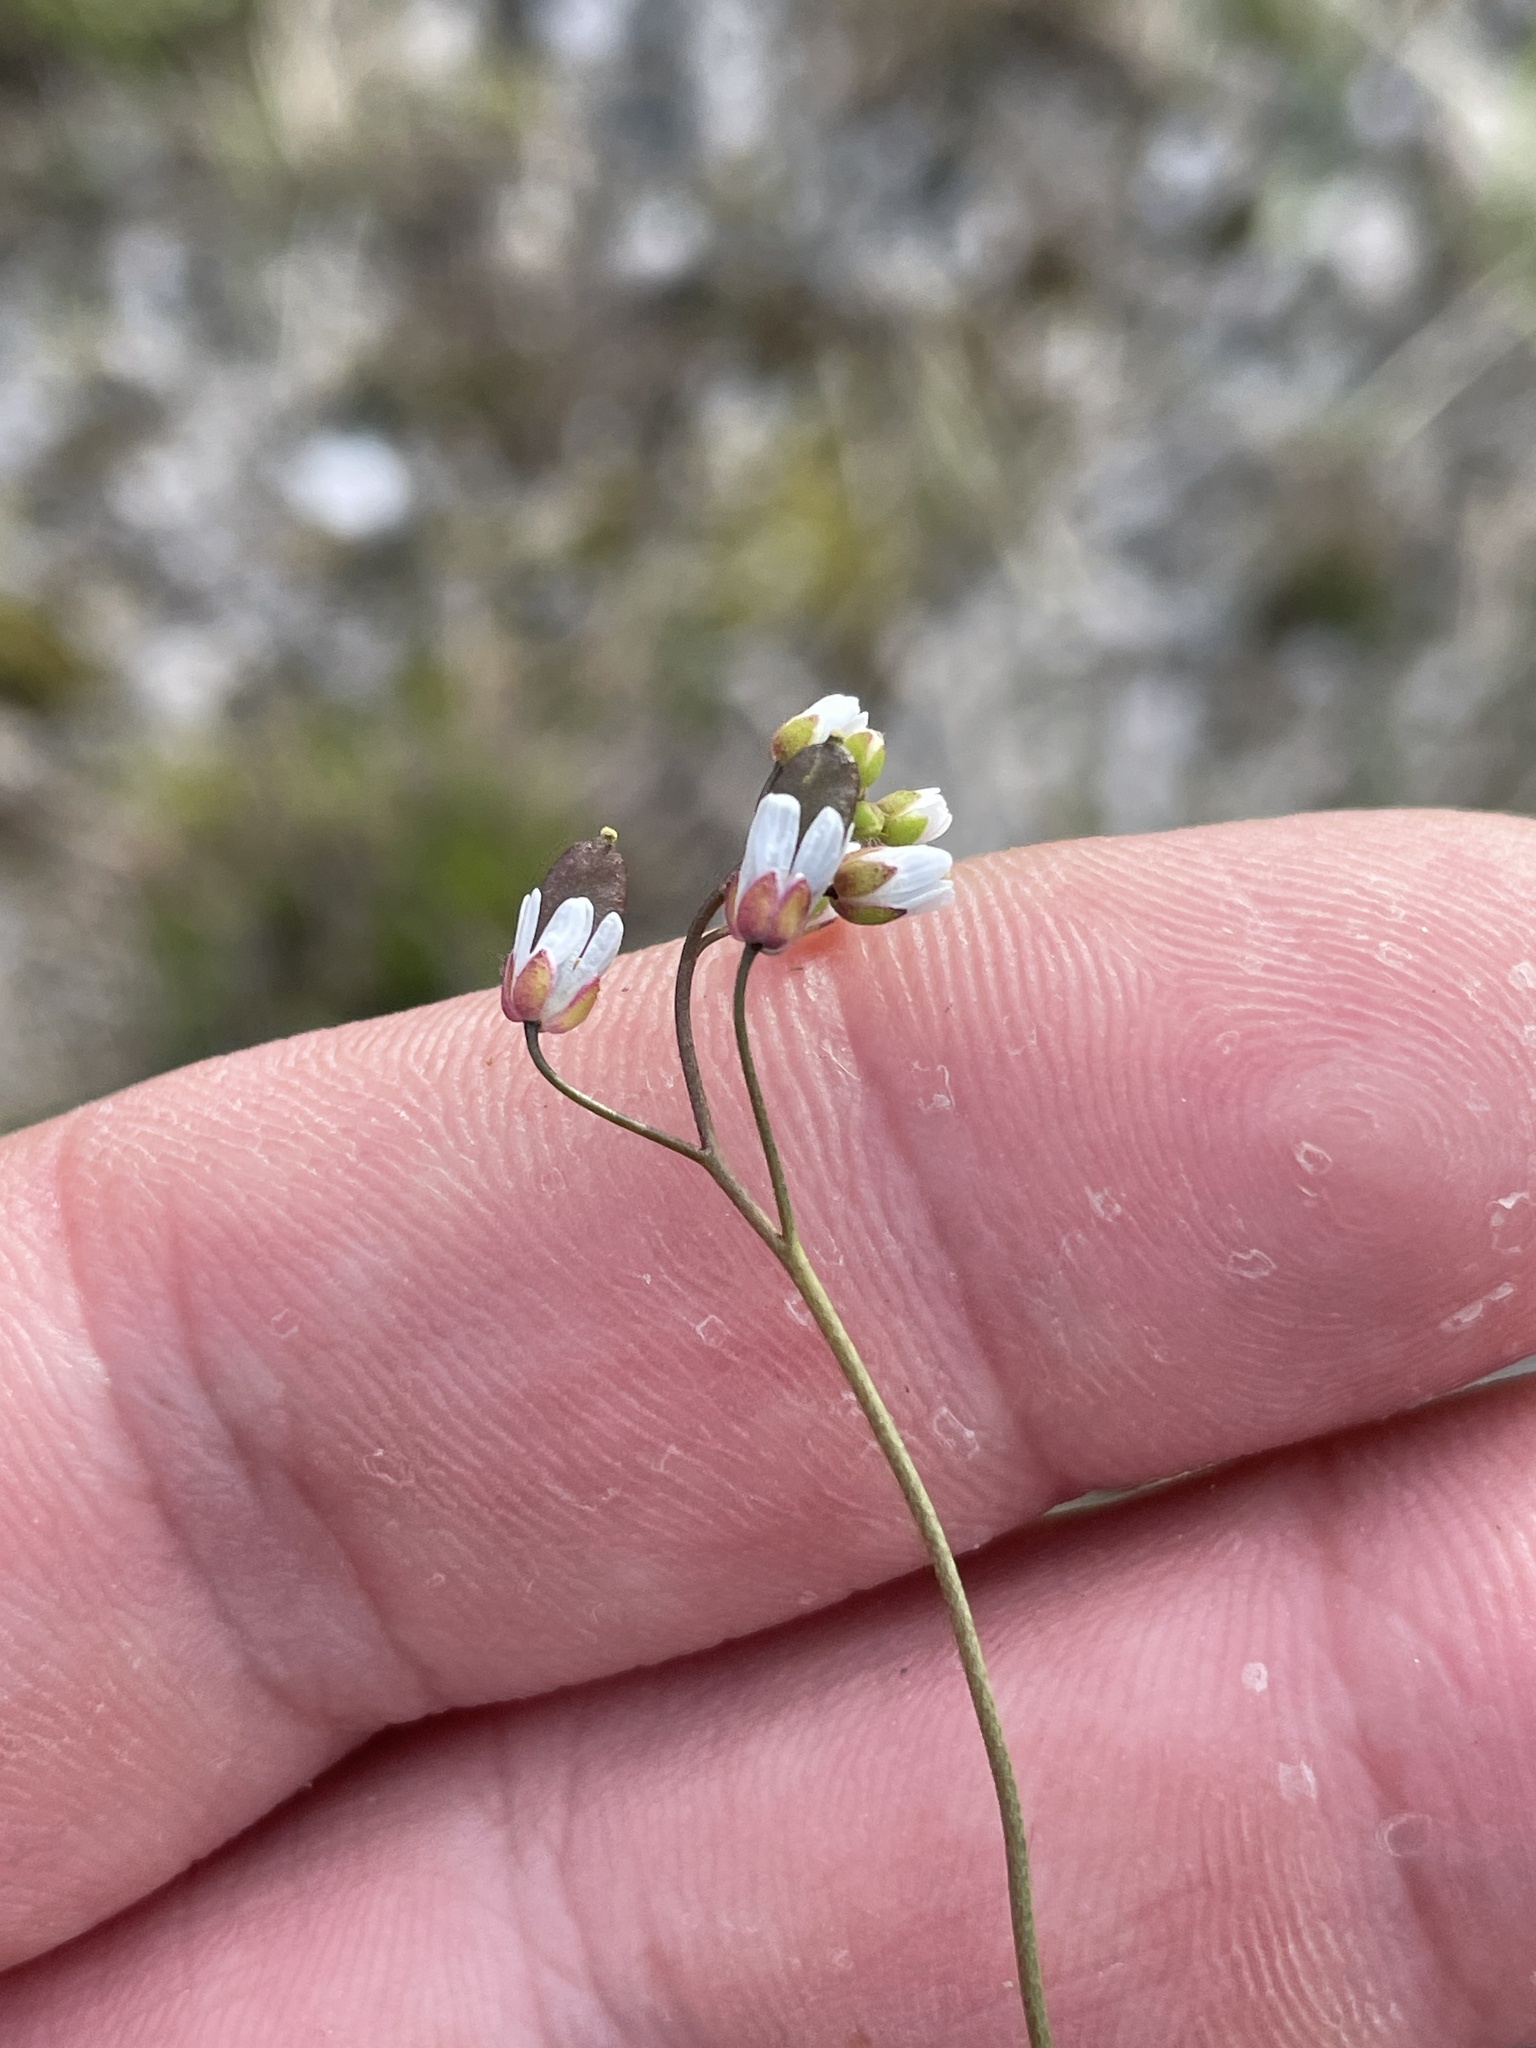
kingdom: Plantae
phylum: Tracheophyta
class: Magnoliopsida
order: Brassicales
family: Brassicaceae
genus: Draba
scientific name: Draba verna
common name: Spring draba
